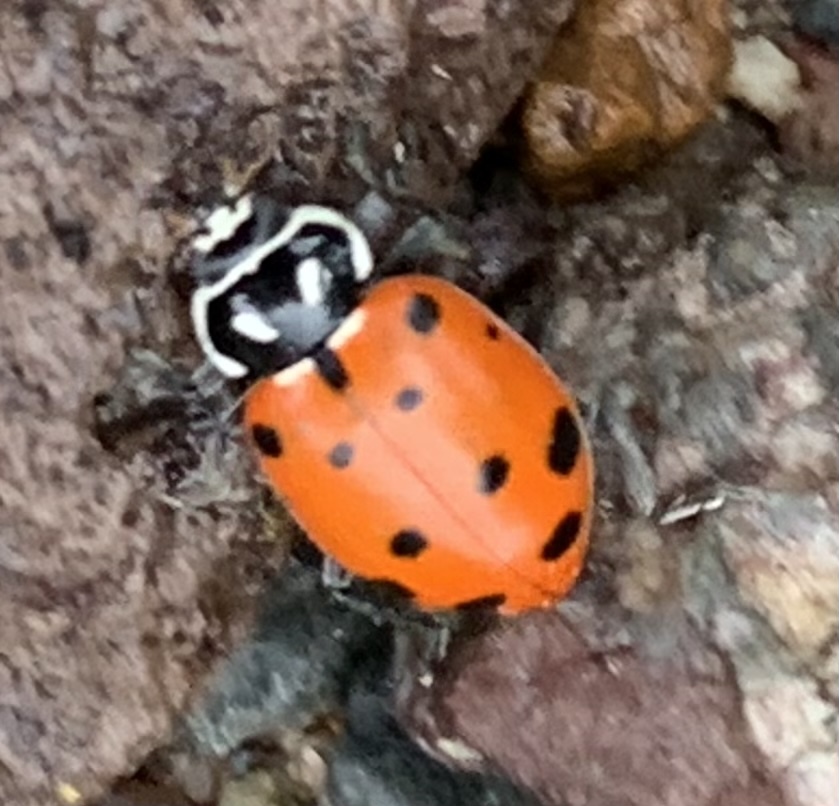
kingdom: Animalia
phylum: Arthropoda
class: Insecta
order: Coleoptera
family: Coccinellidae
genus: Hippodamia
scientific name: Hippodamia convergens
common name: Convergent lady beetle
